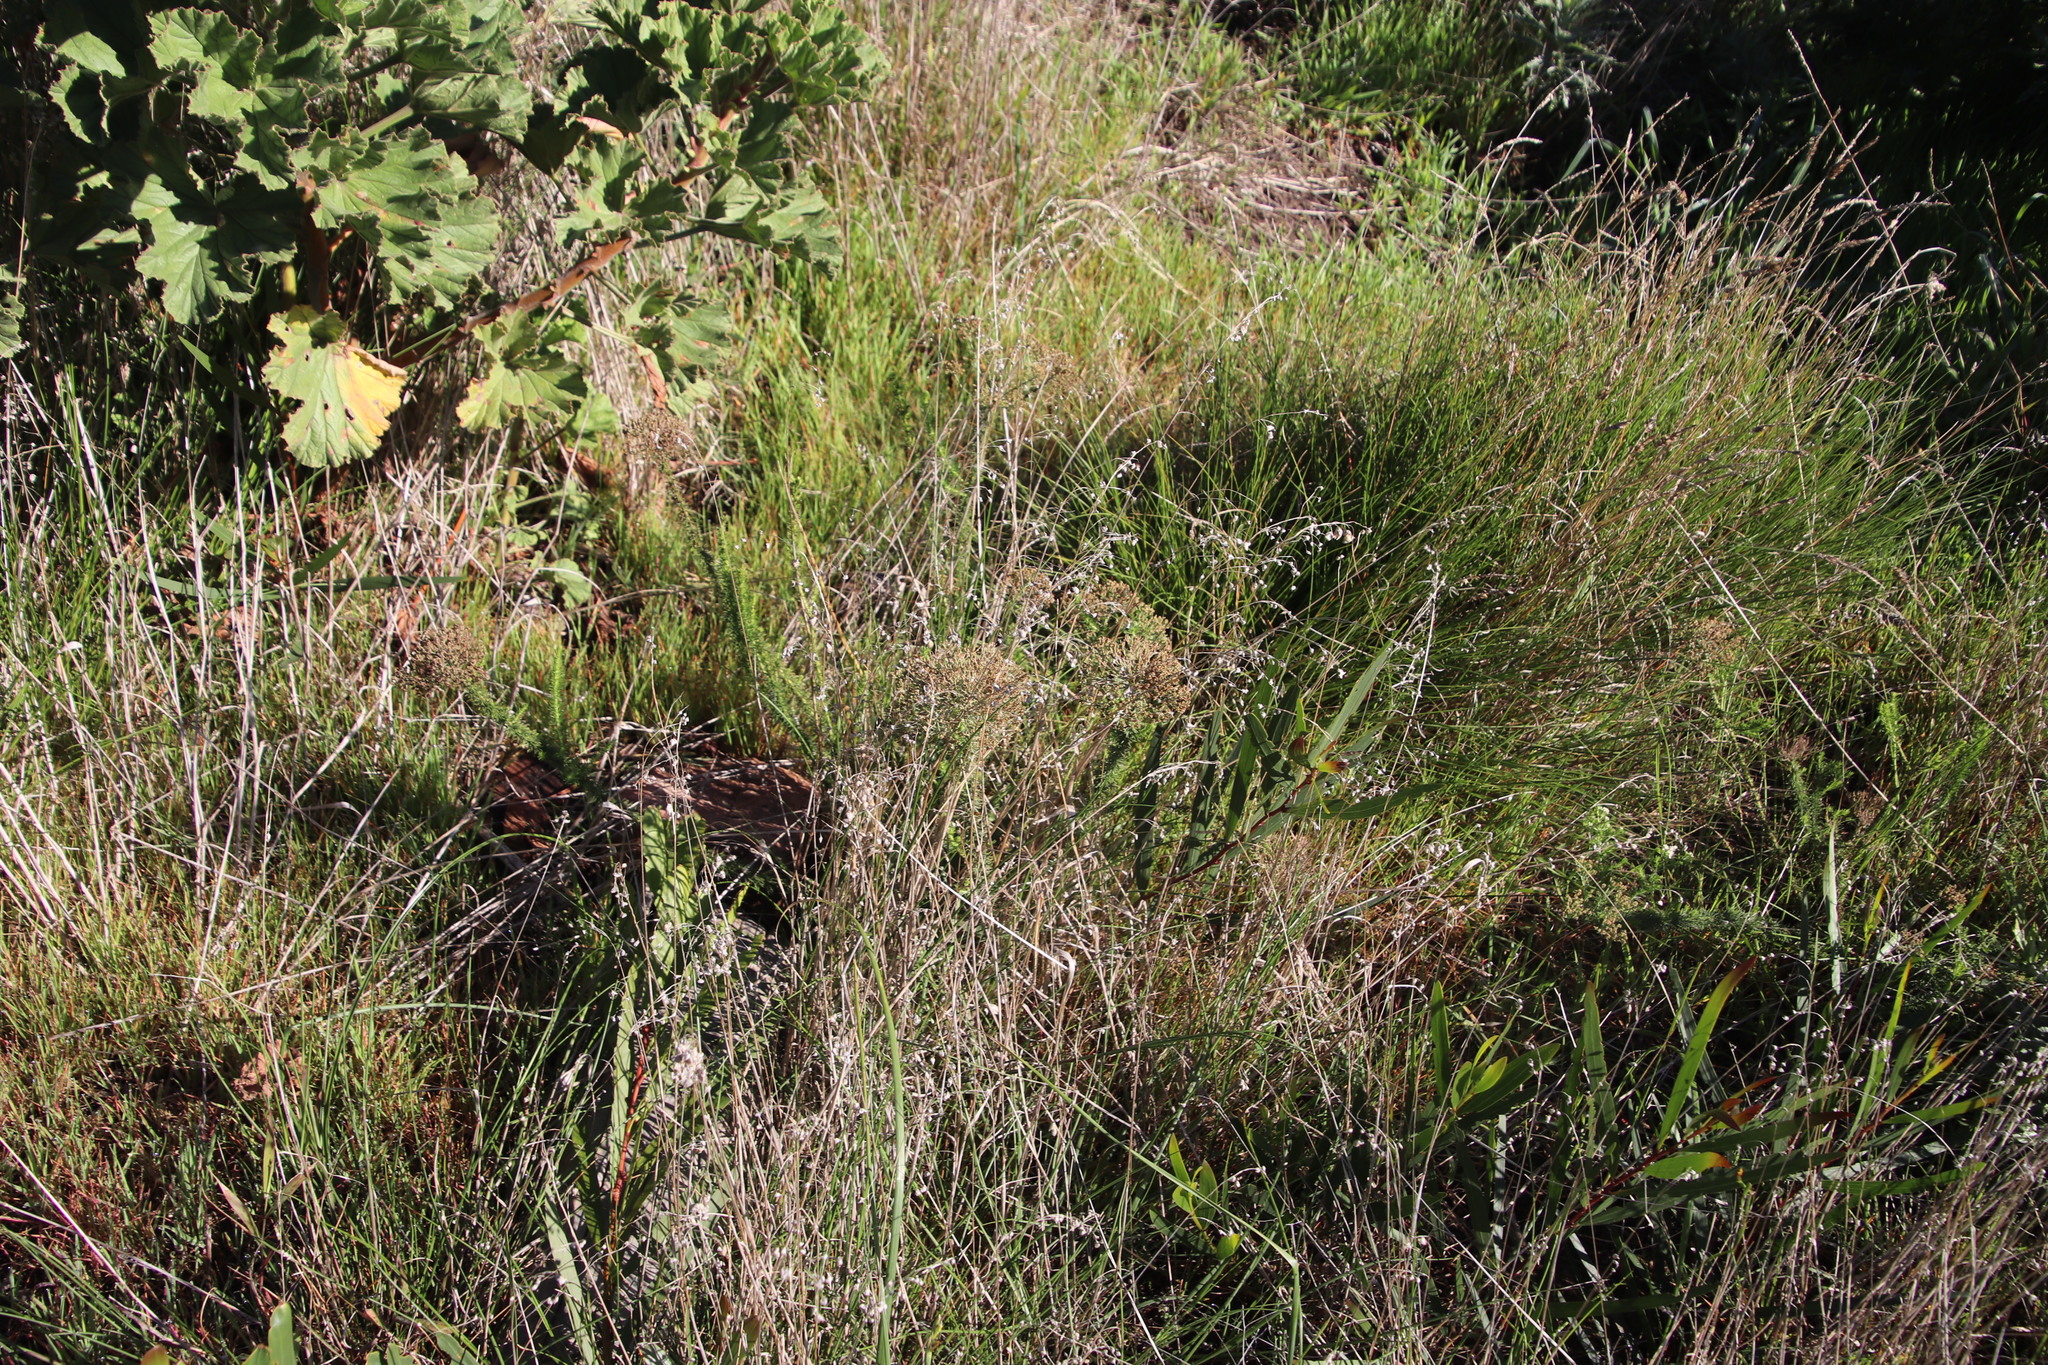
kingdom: Plantae
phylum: Tracheophyta
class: Magnoliopsida
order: Lamiales
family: Scrophulariaceae
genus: Selago
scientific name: Selago corymbosa
